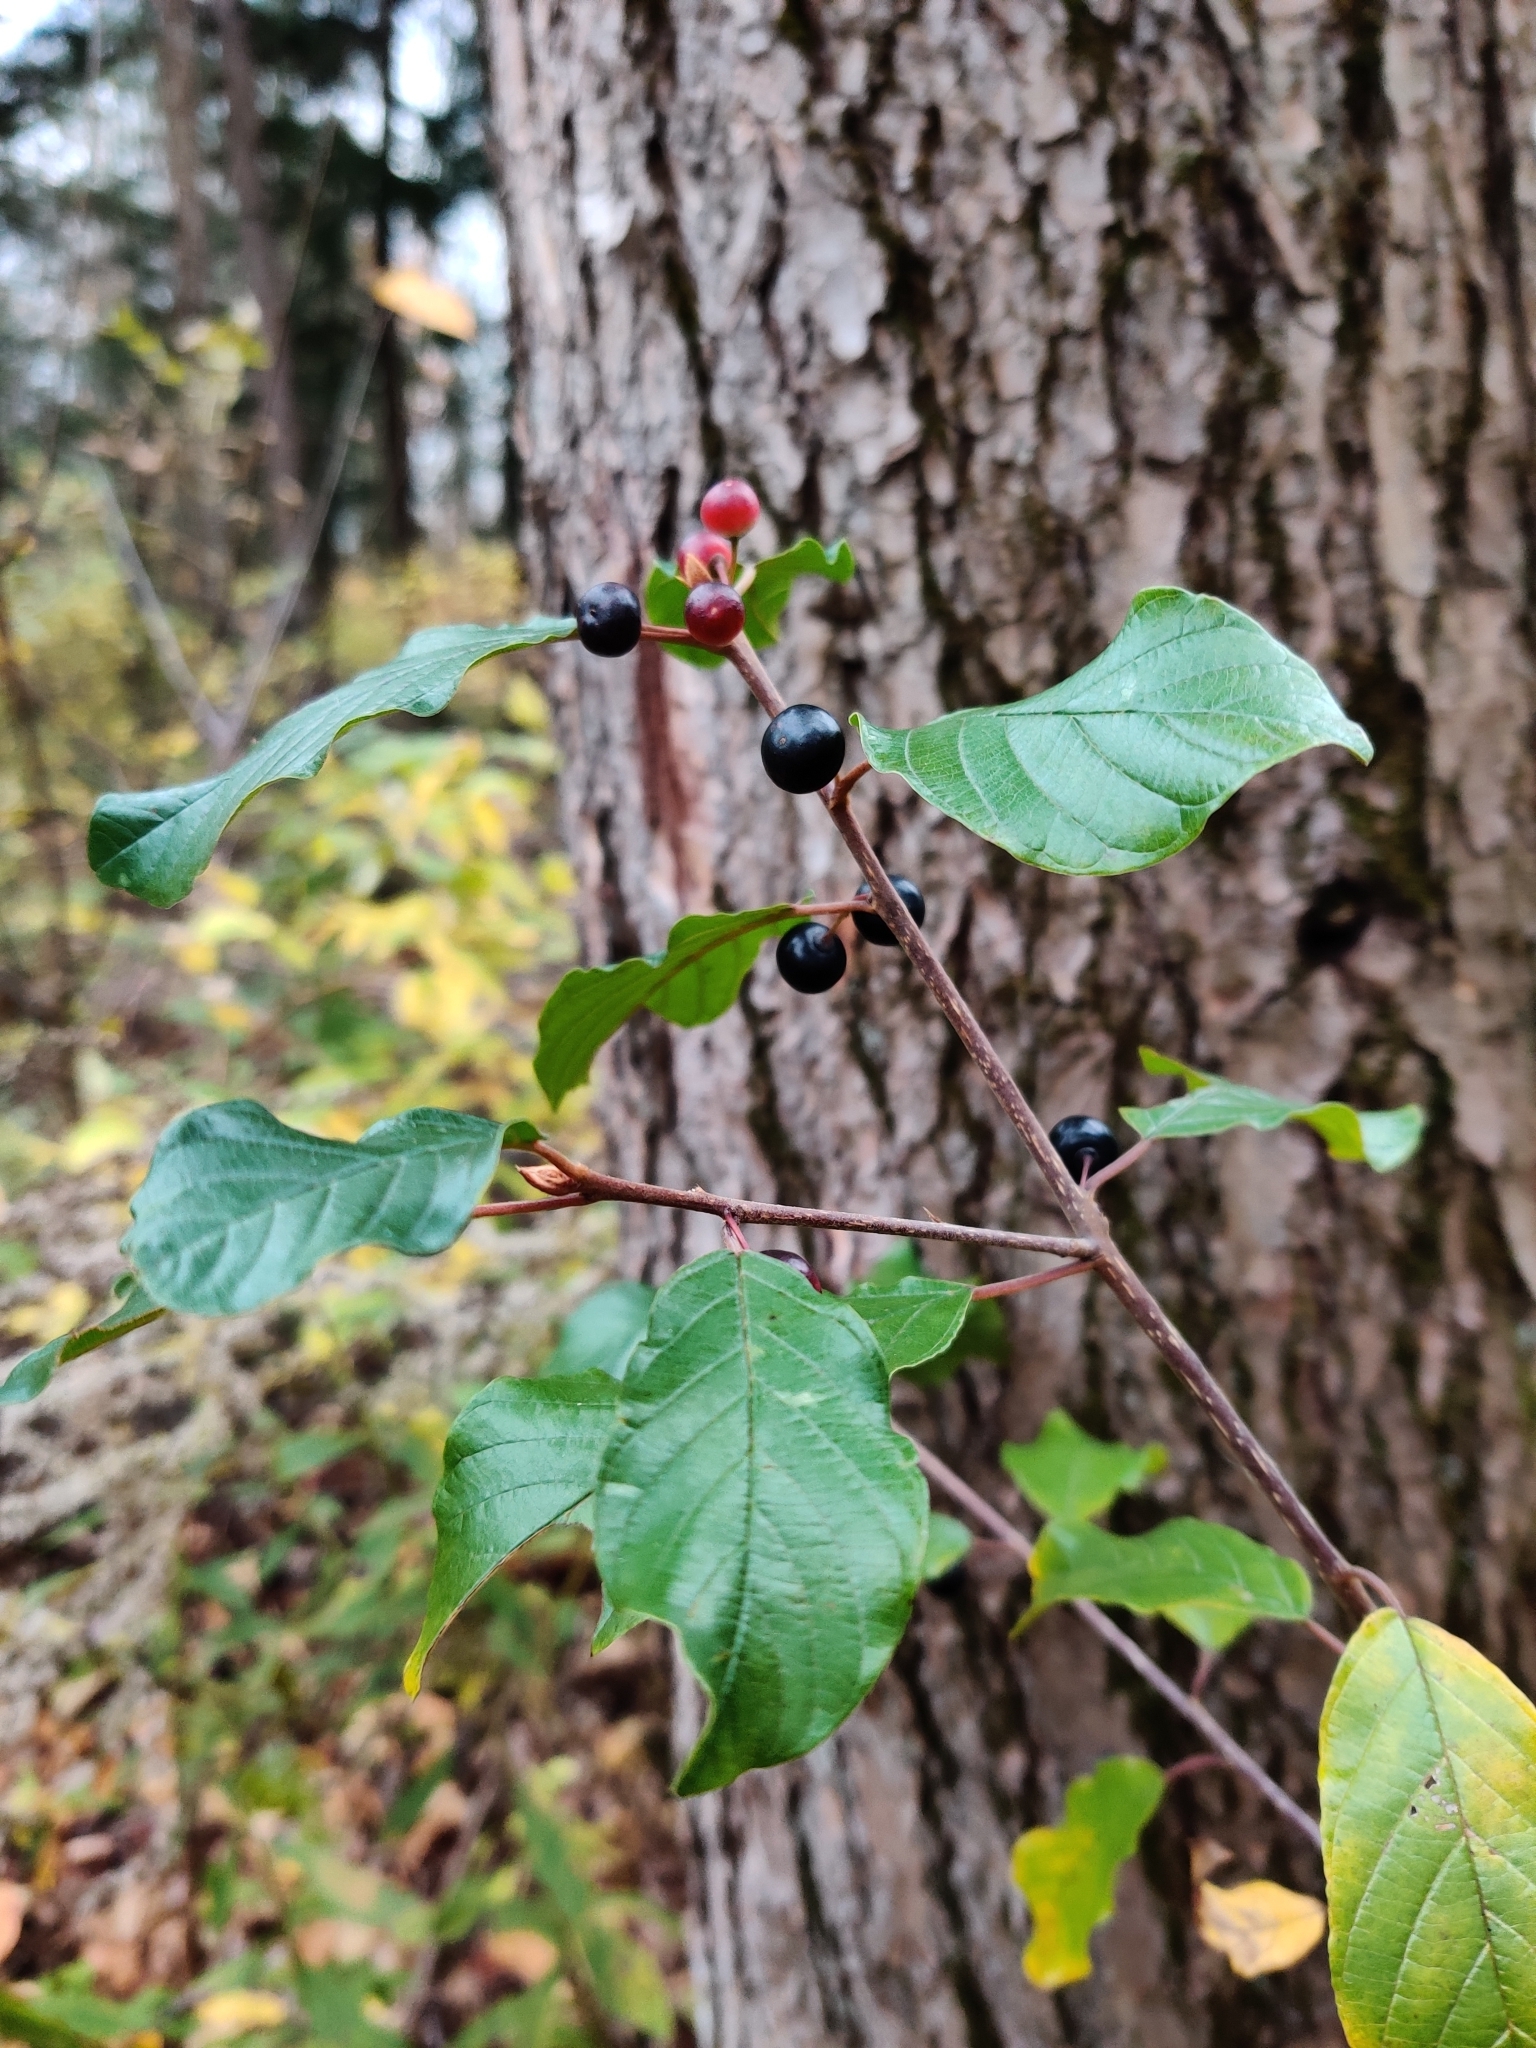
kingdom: Plantae
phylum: Tracheophyta
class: Magnoliopsida
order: Rosales
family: Rhamnaceae
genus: Frangula
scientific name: Frangula alnus
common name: Alder buckthorn
